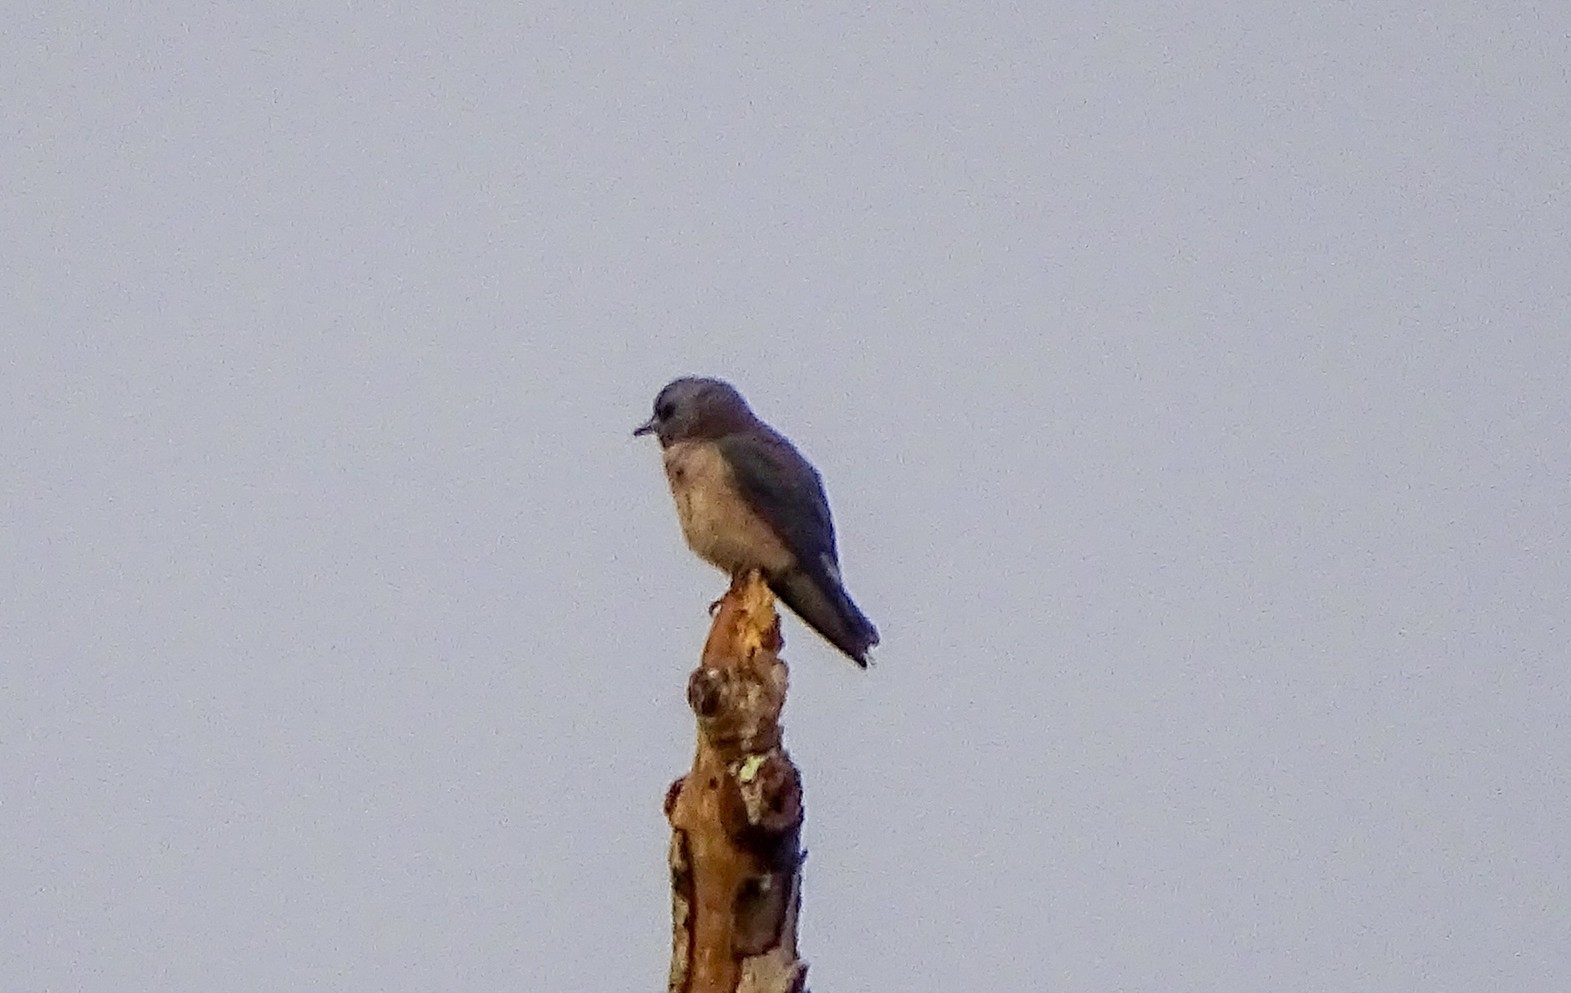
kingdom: Animalia
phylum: Chordata
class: Aves
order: Passeriformes
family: Artamidae
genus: Artamus
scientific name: Artamus fuscus
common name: Ashy woodswallow
